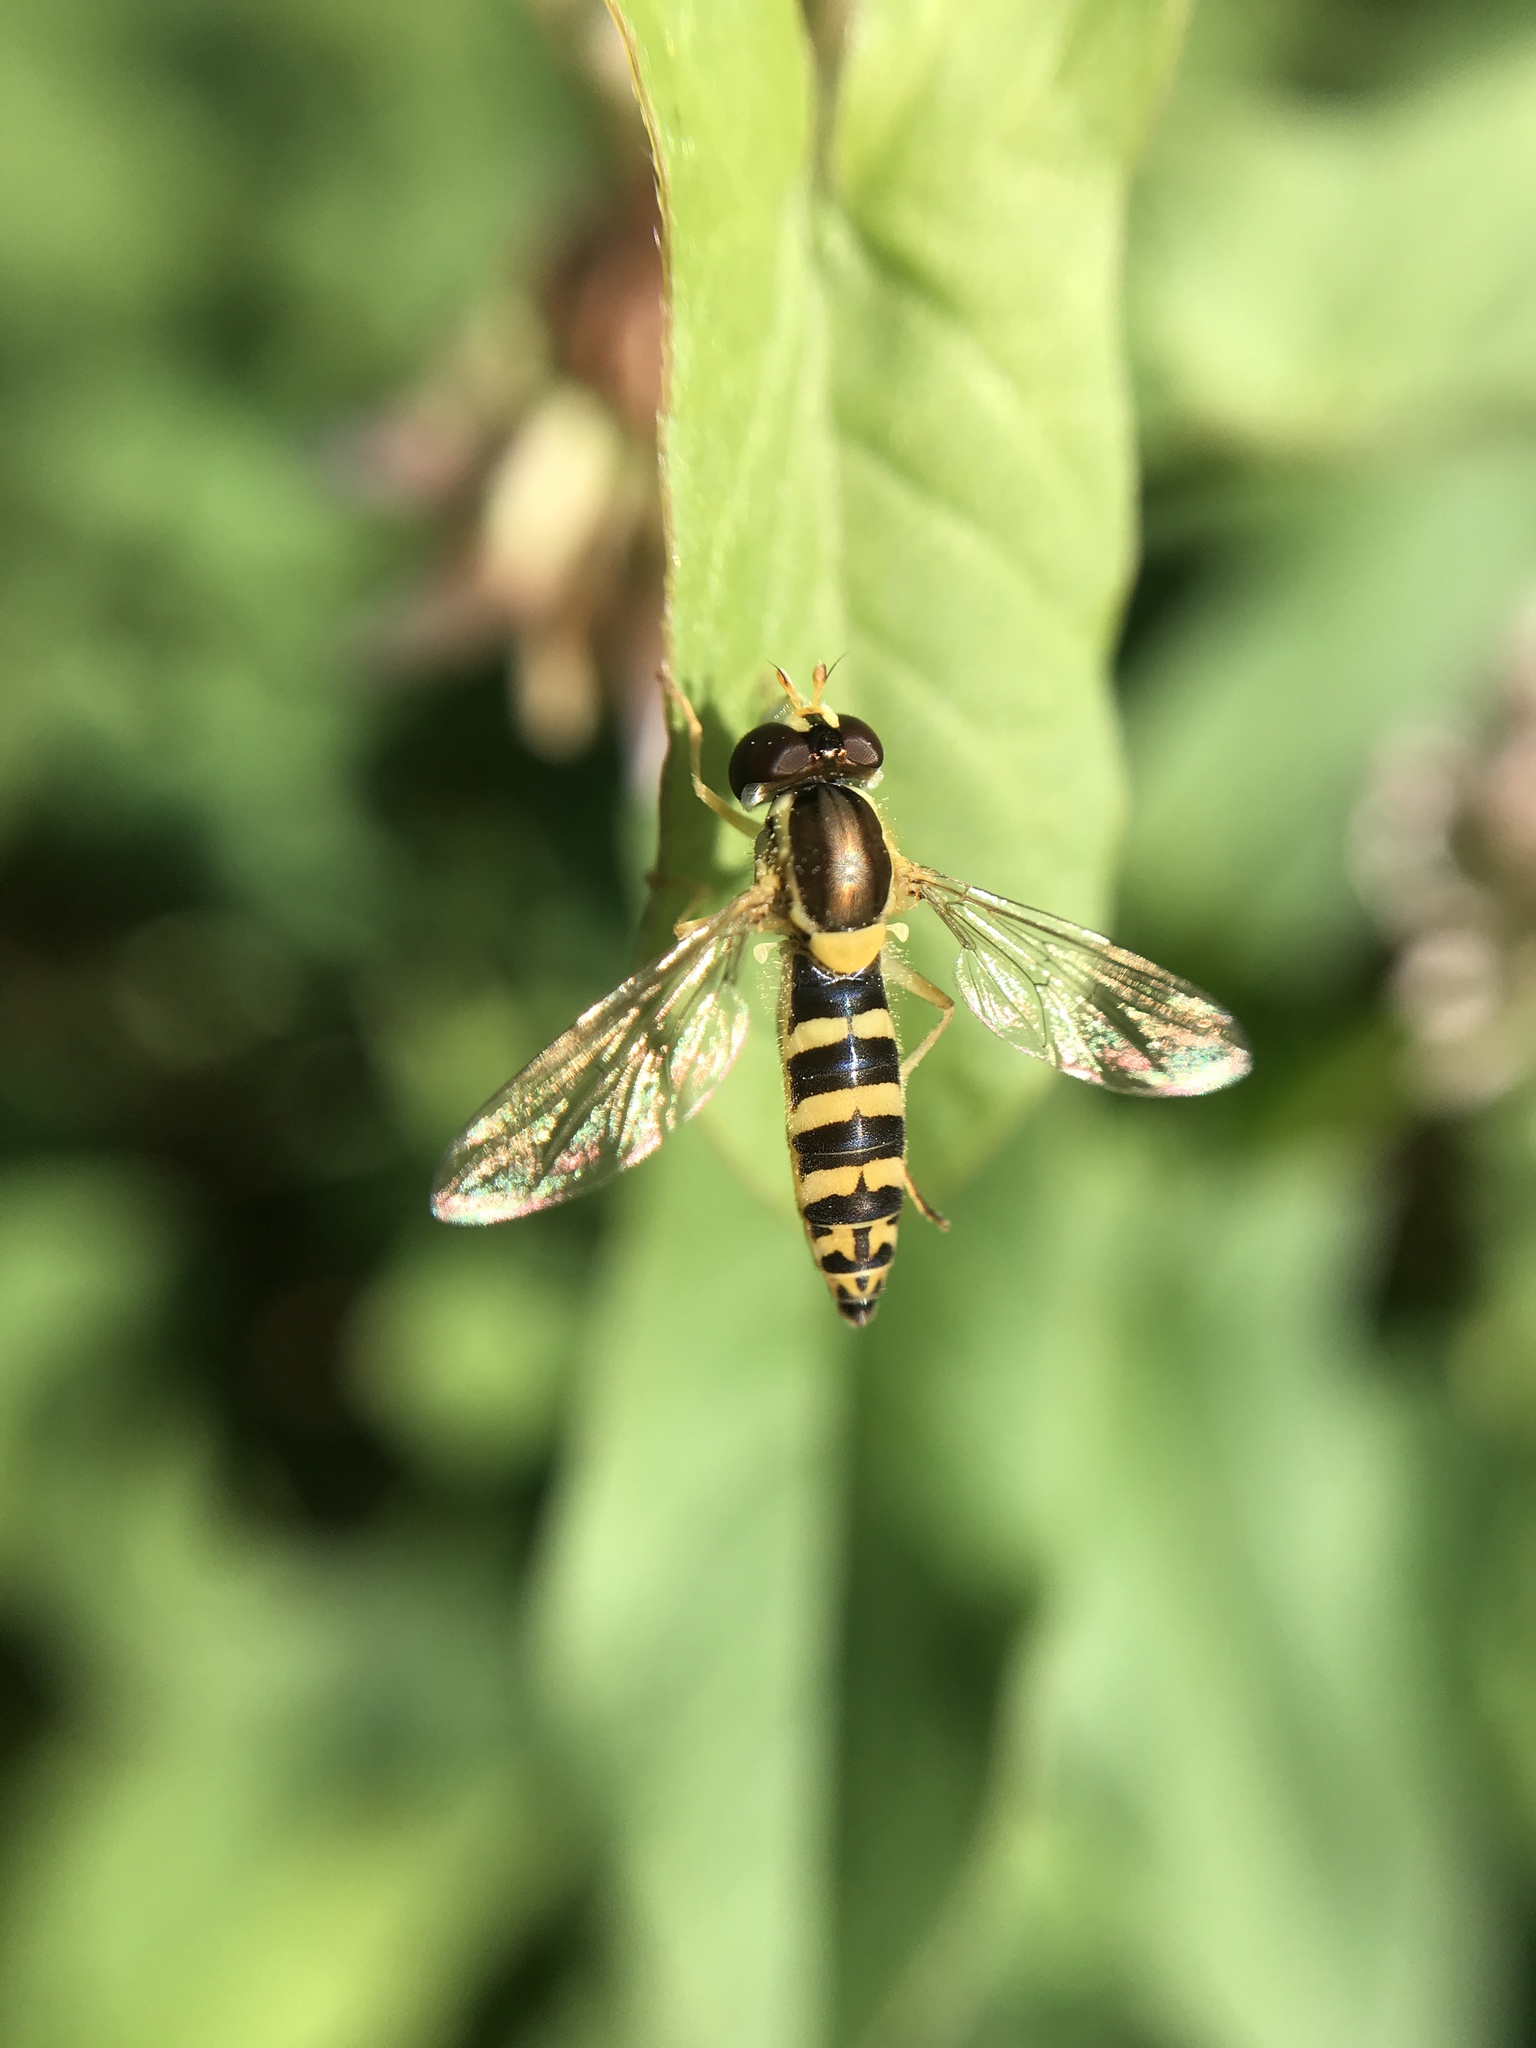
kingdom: Animalia
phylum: Arthropoda
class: Insecta
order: Diptera
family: Syrphidae
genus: Sphaerophoria
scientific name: Sphaerophoria
